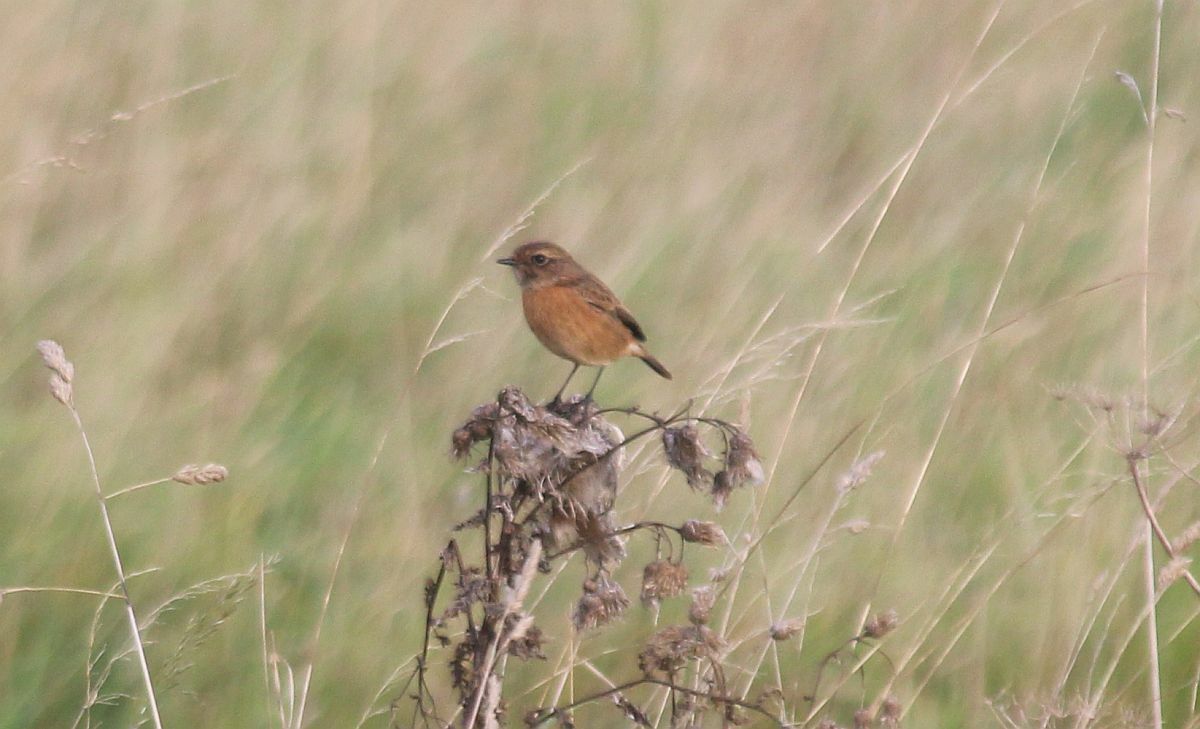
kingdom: Animalia
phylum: Chordata
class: Aves
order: Passeriformes
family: Muscicapidae
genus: Saxicola
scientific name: Saxicola rubicola
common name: European stonechat
